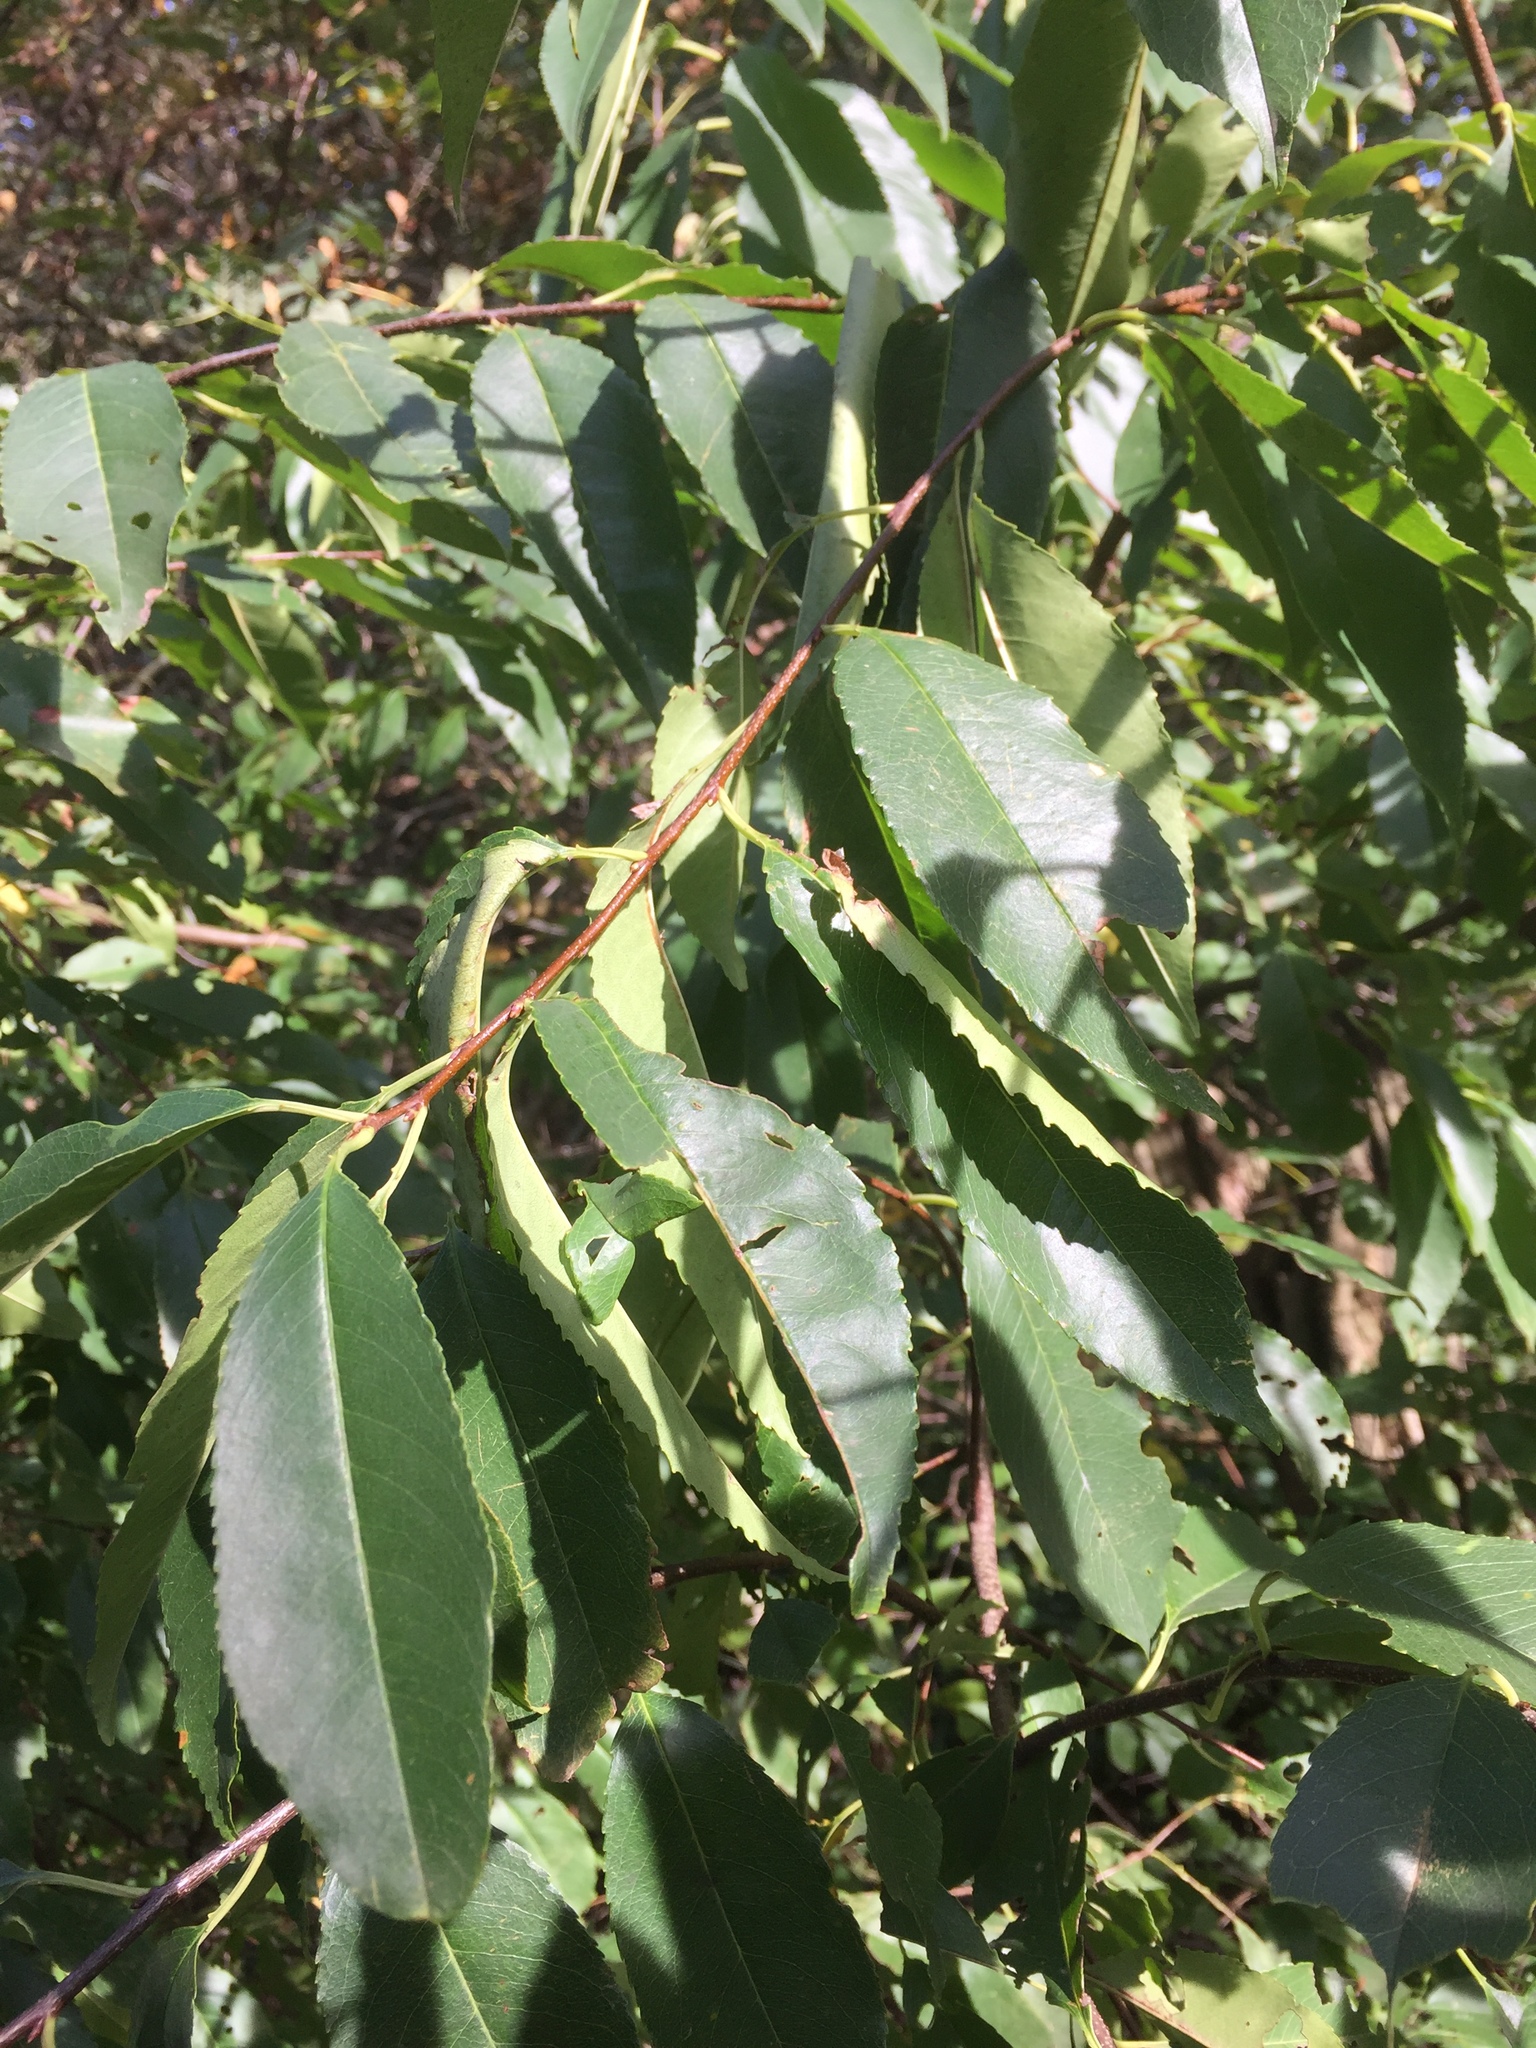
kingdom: Plantae
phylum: Tracheophyta
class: Magnoliopsida
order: Rosales
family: Rosaceae
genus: Prunus
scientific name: Prunus serotina
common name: Black cherry
